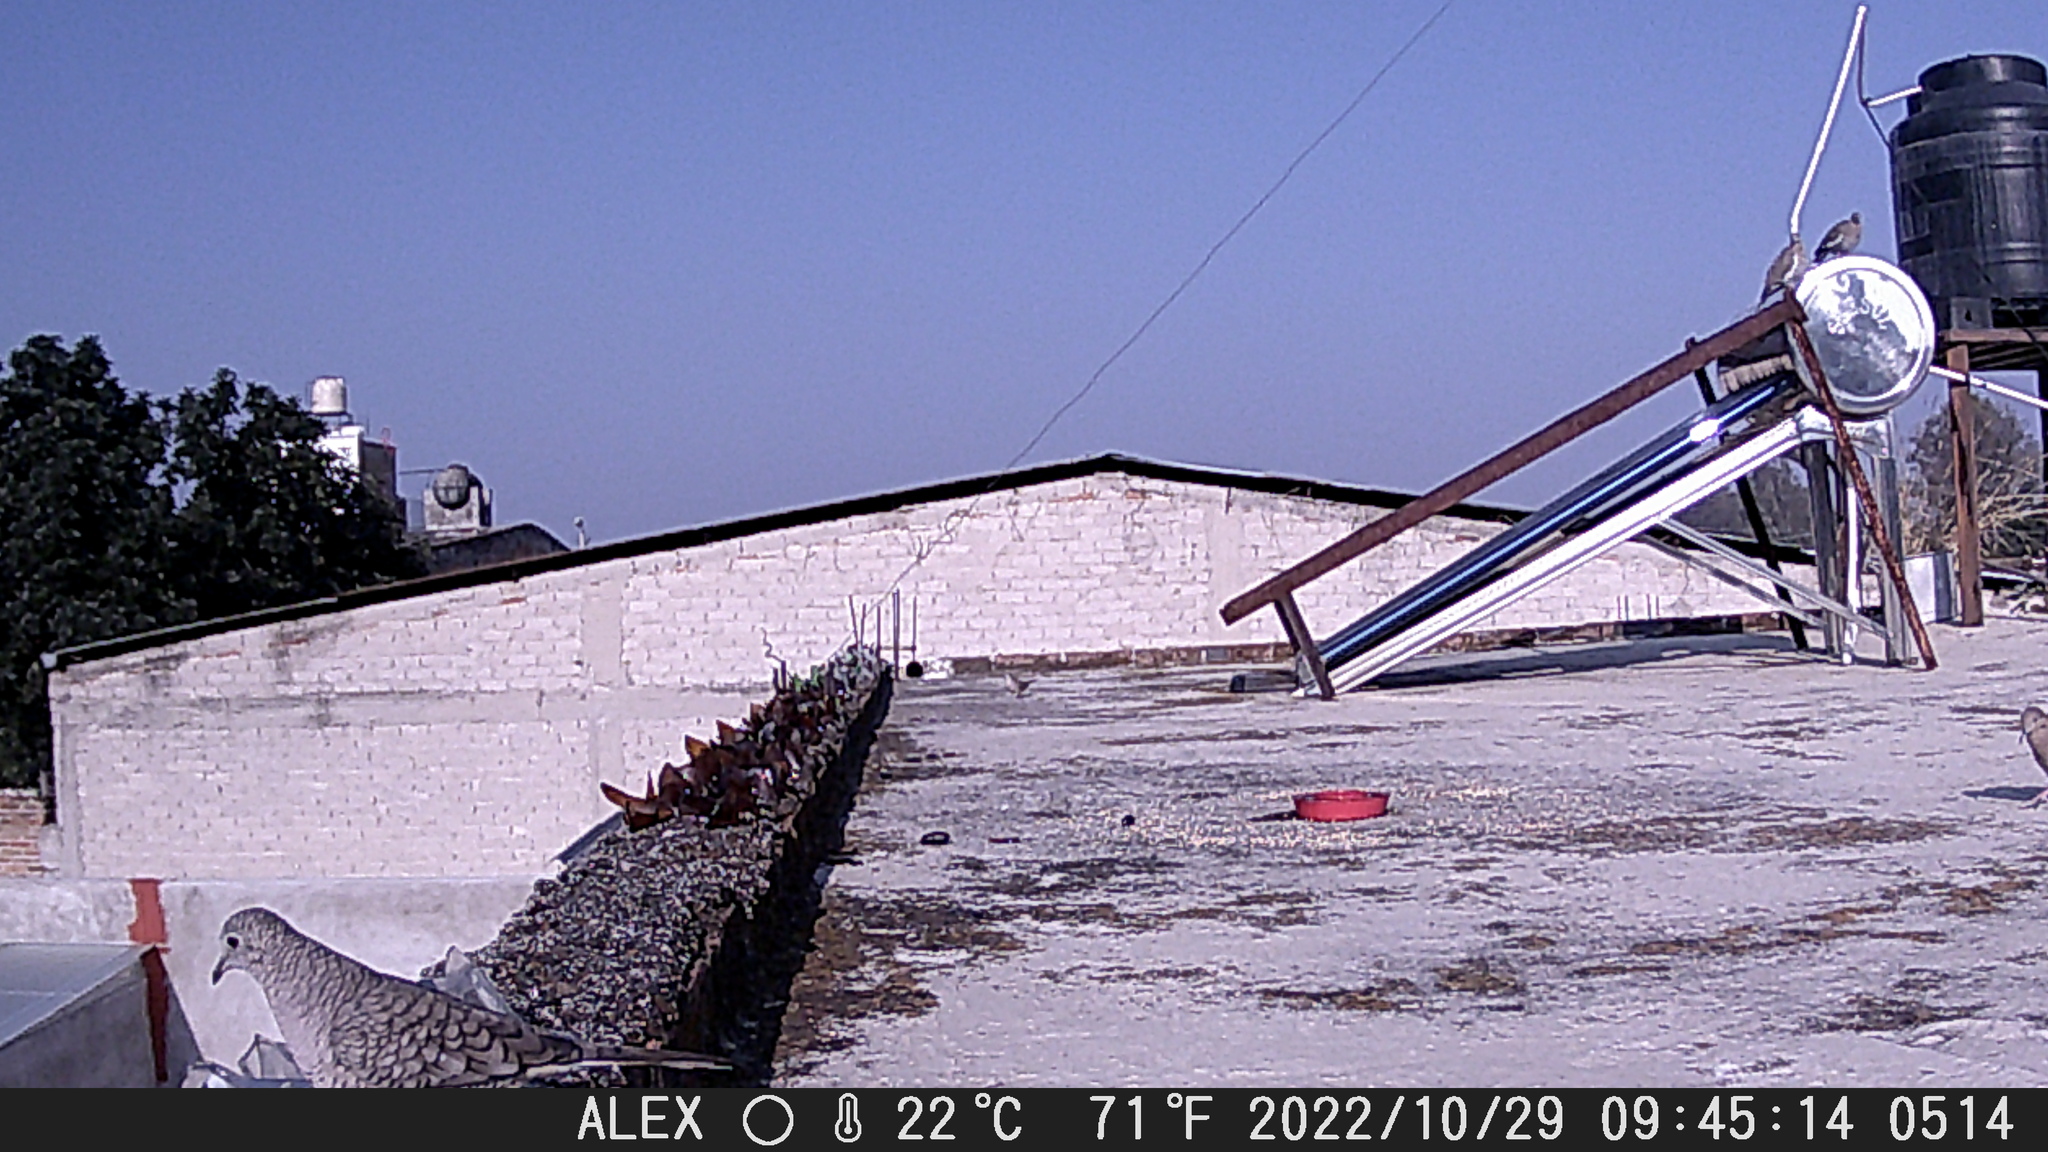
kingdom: Animalia
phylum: Chordata
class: Aves
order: Columbiformes
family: Columbidae
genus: Columbina
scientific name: Columbina inca
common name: Inca dove
